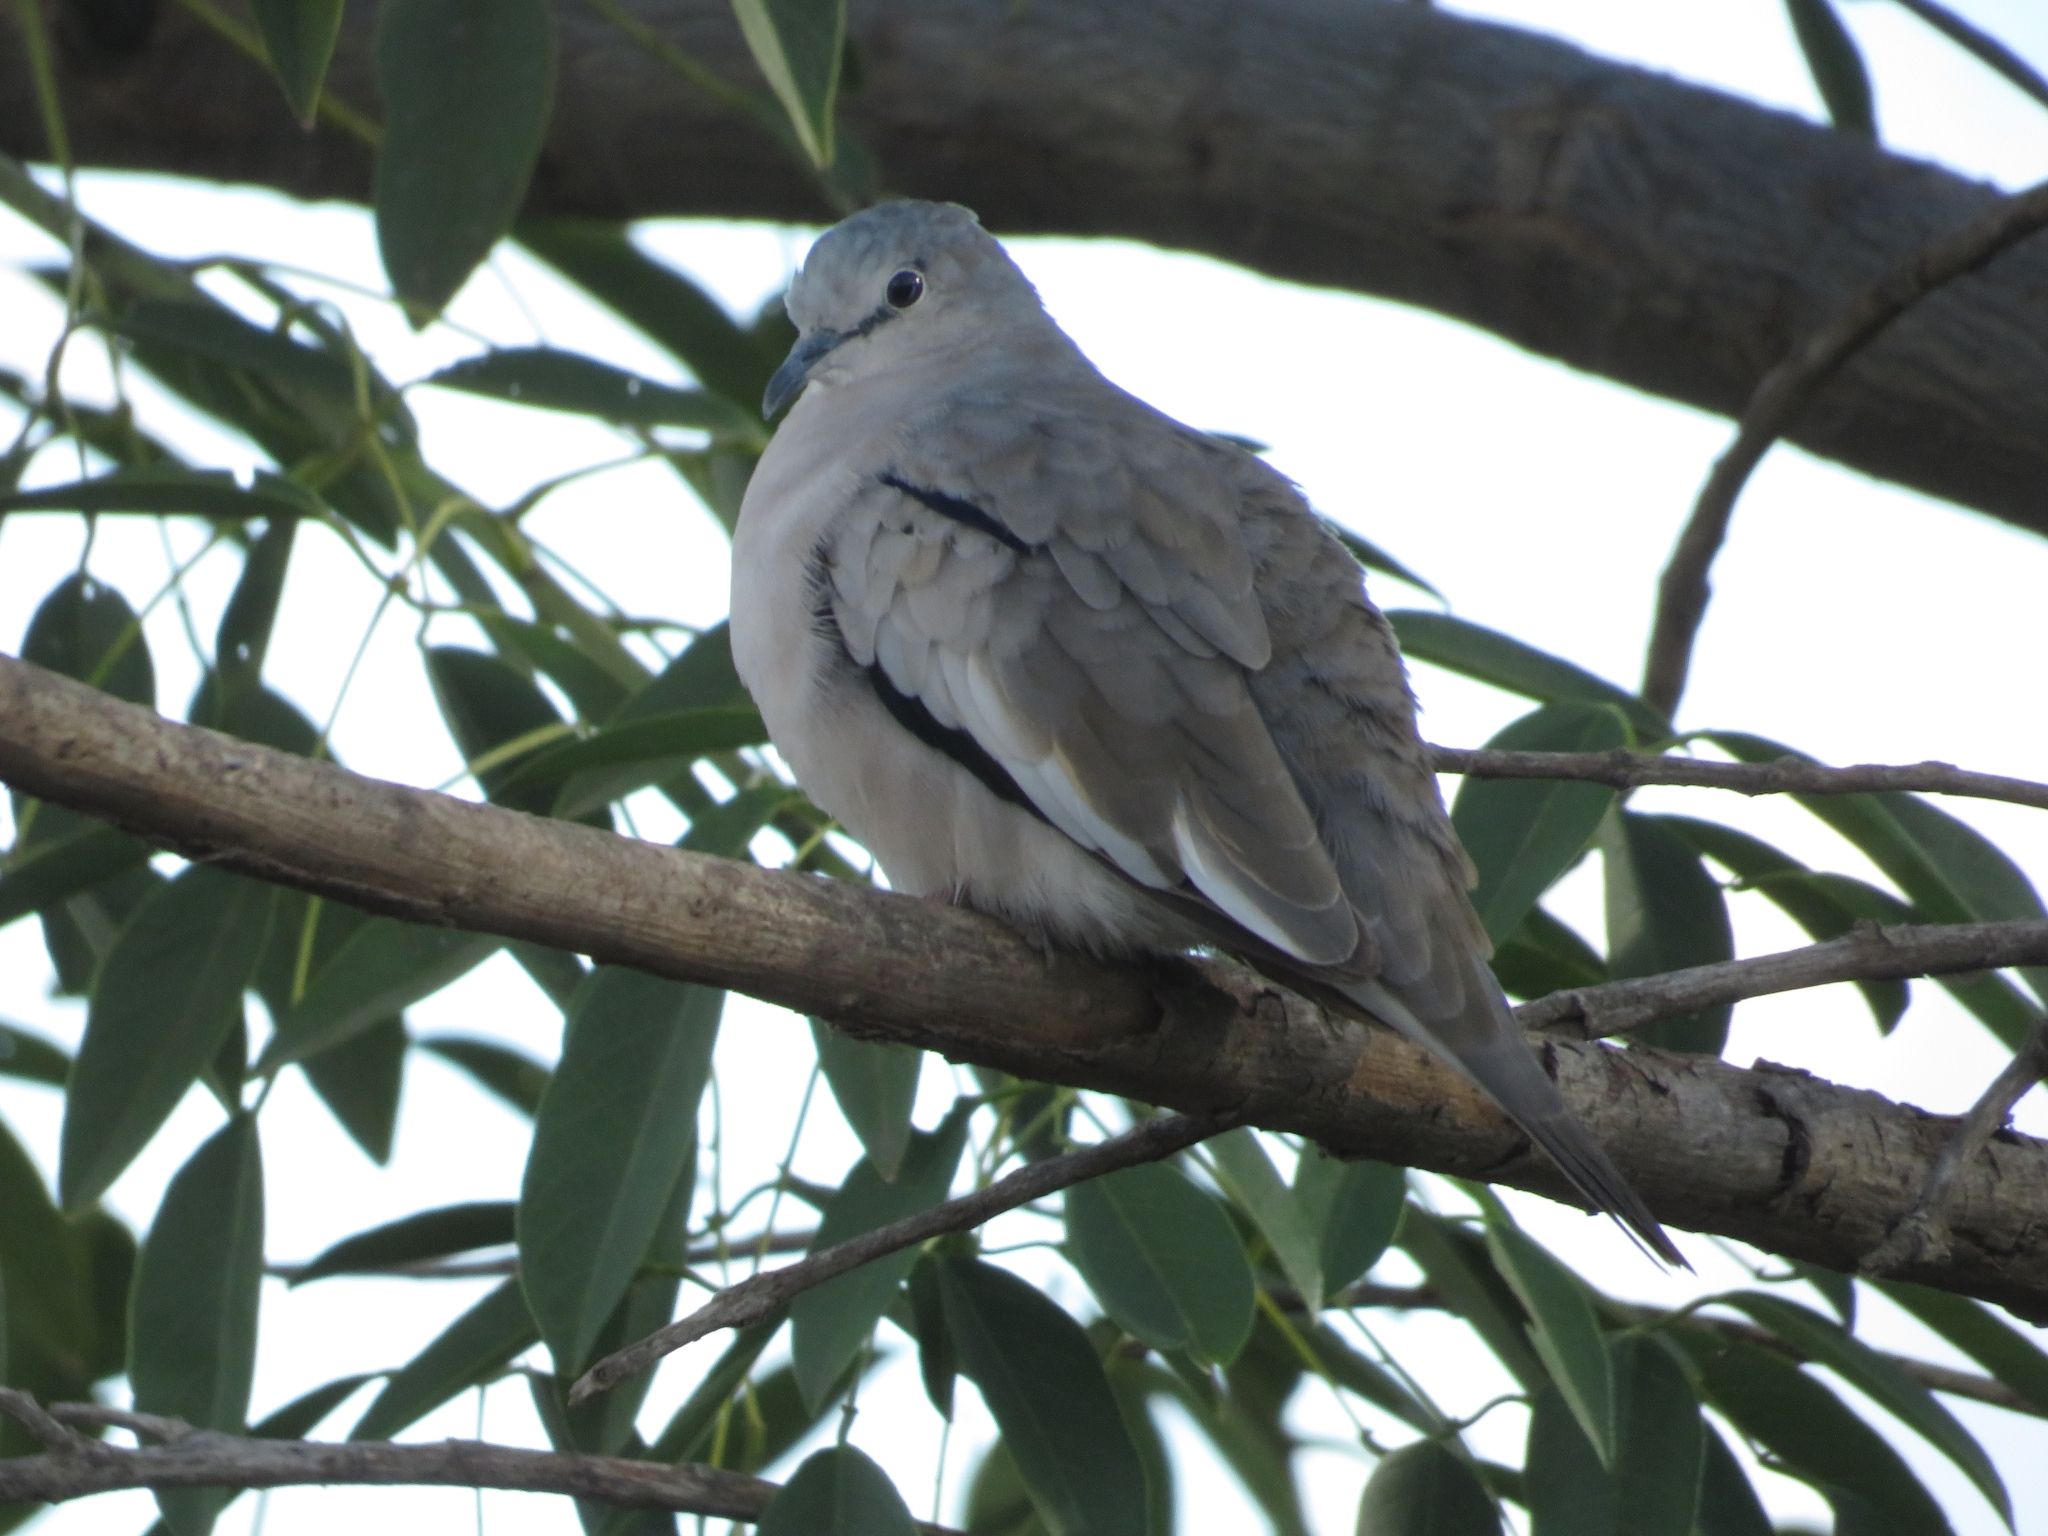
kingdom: Animalia
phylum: Chordata
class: Aves
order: Columbiformes
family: Columbidae
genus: Columbina
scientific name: Columbina picui
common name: Picui ground dove
